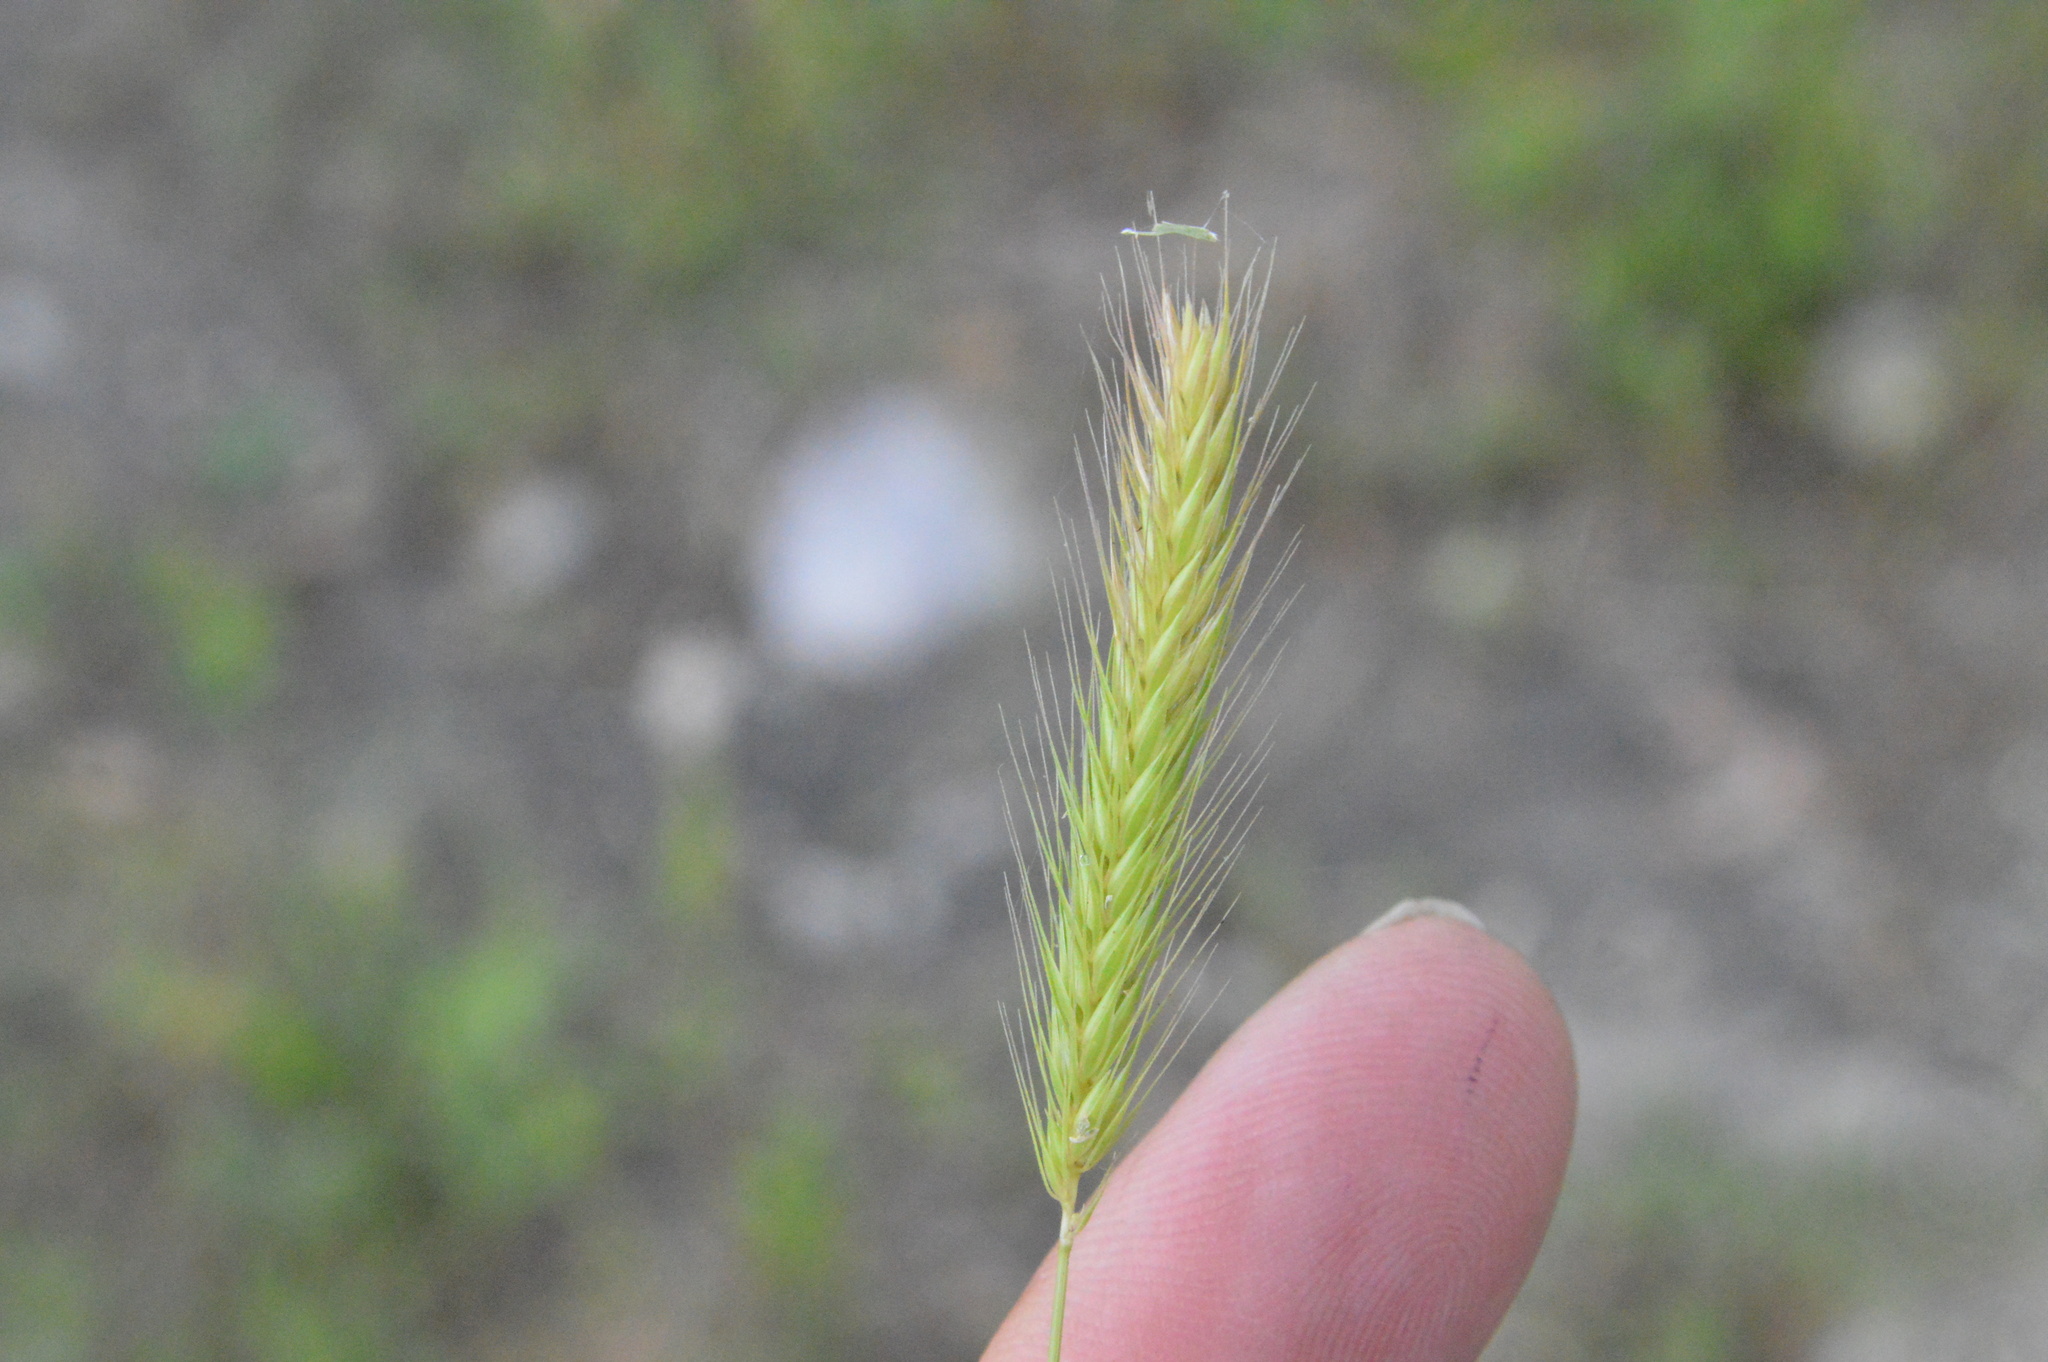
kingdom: Plantae
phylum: Tracheophyta
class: Liliopsida
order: Poales
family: Poaceae
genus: Hordeum
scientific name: Hordeum pusillum
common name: Little barley
